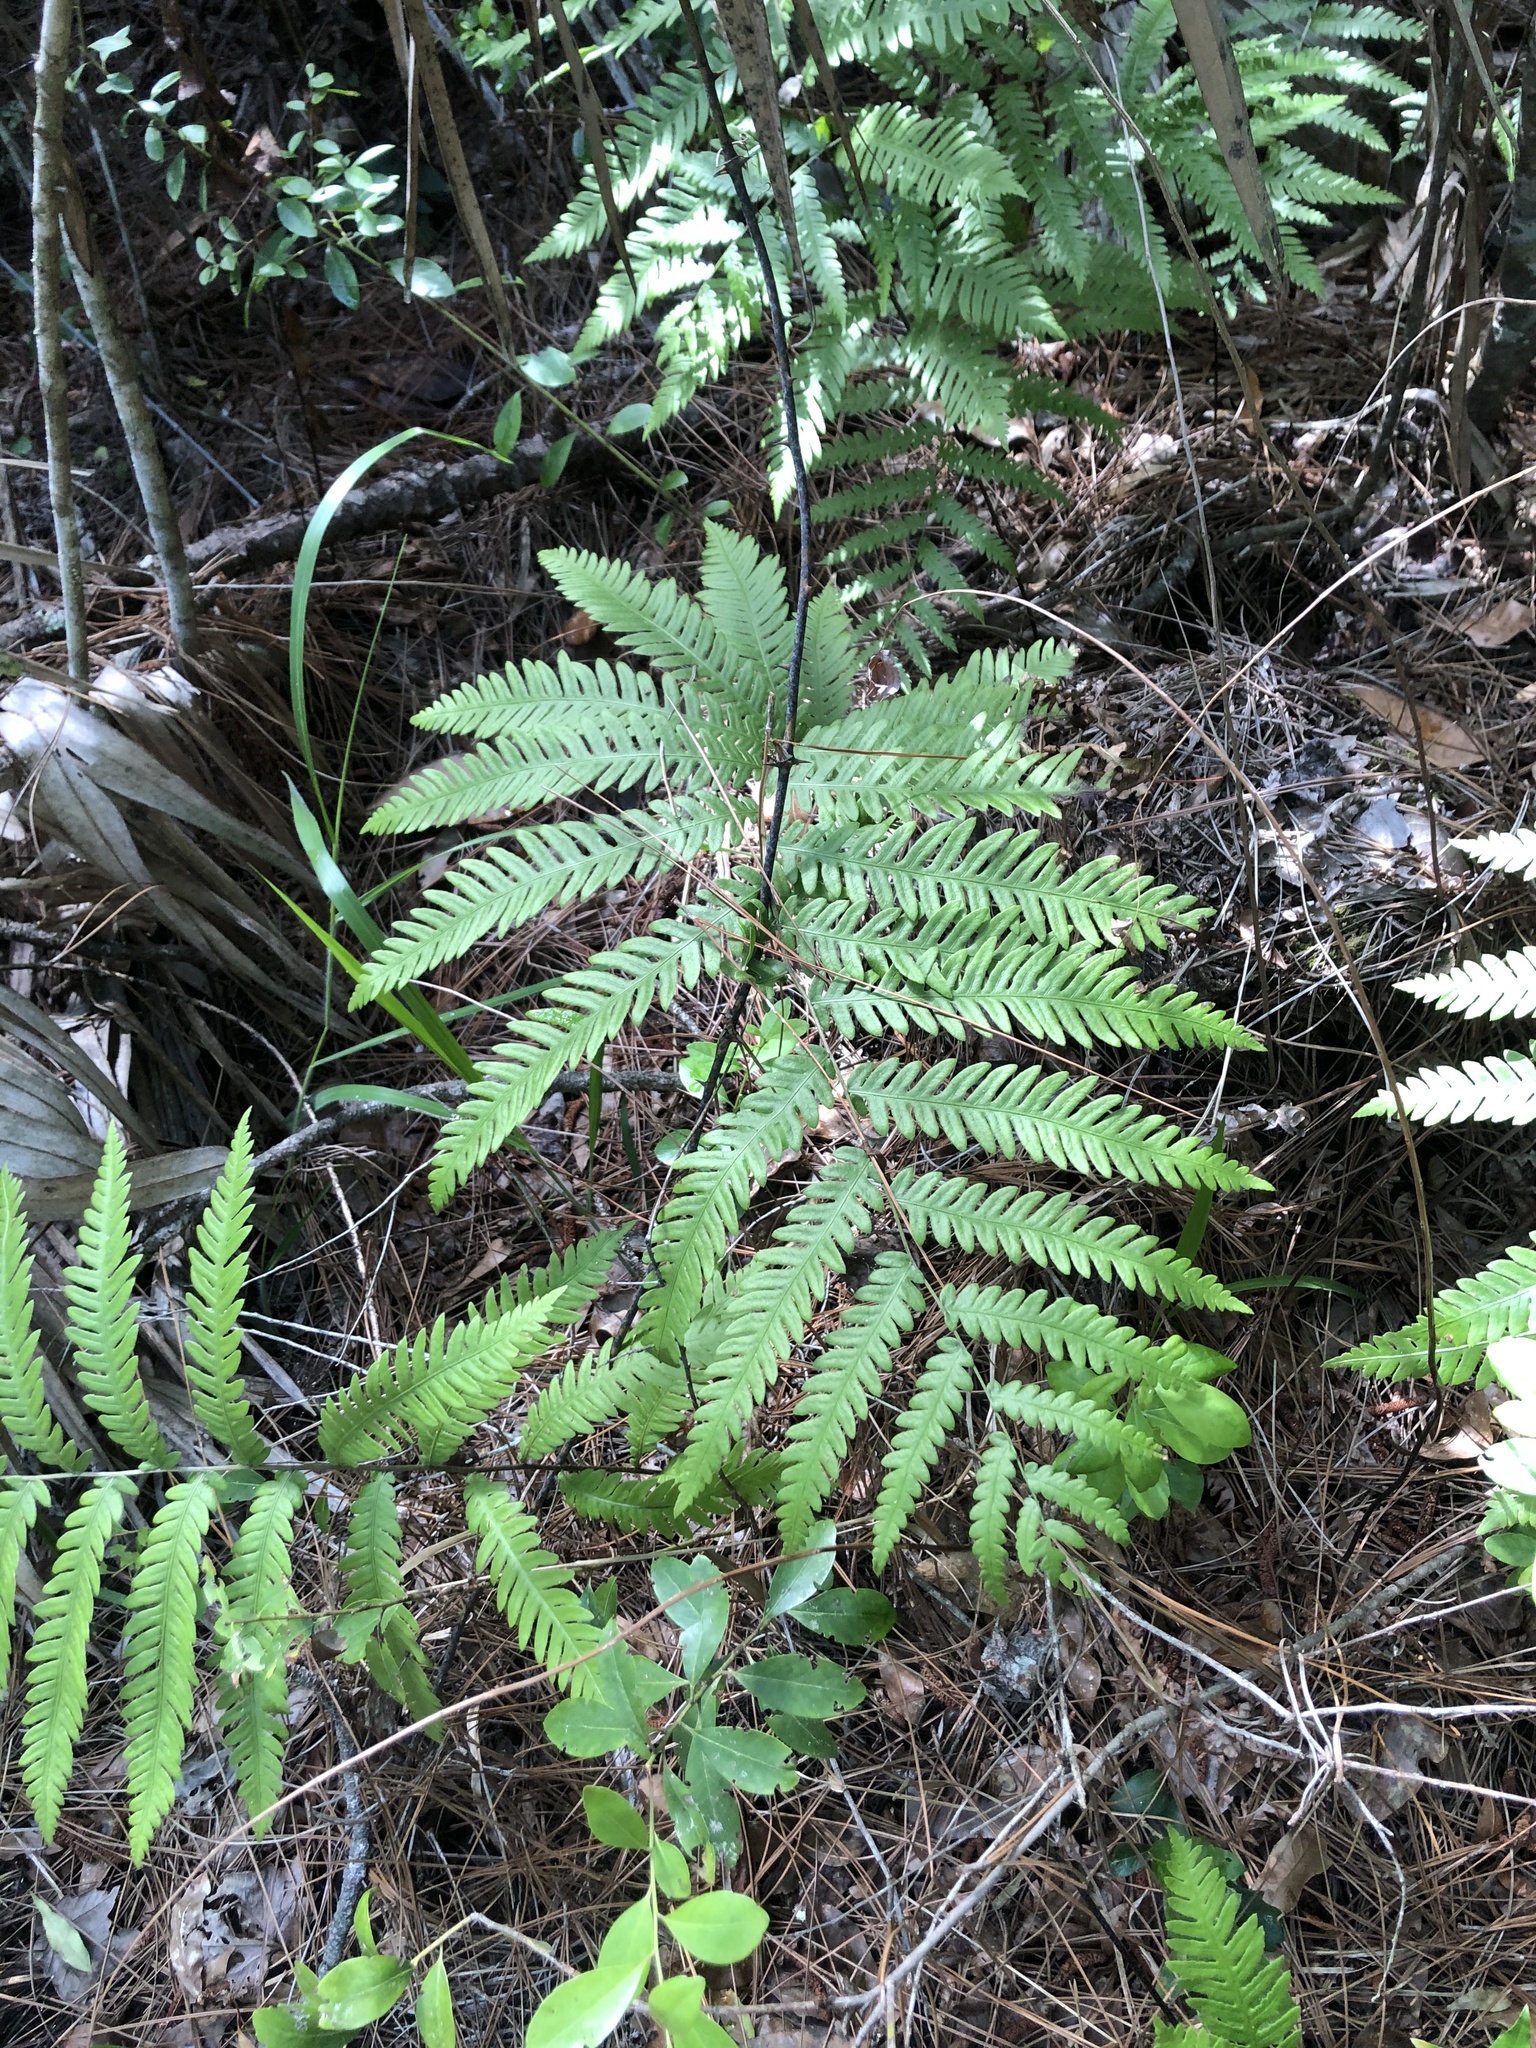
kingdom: Plantae
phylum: Tracheophyta
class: Polypodiopsida
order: Polypodiales
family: Blechnaceae
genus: Anchistea
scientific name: Anchistea virginica
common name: Virginia chain fern
